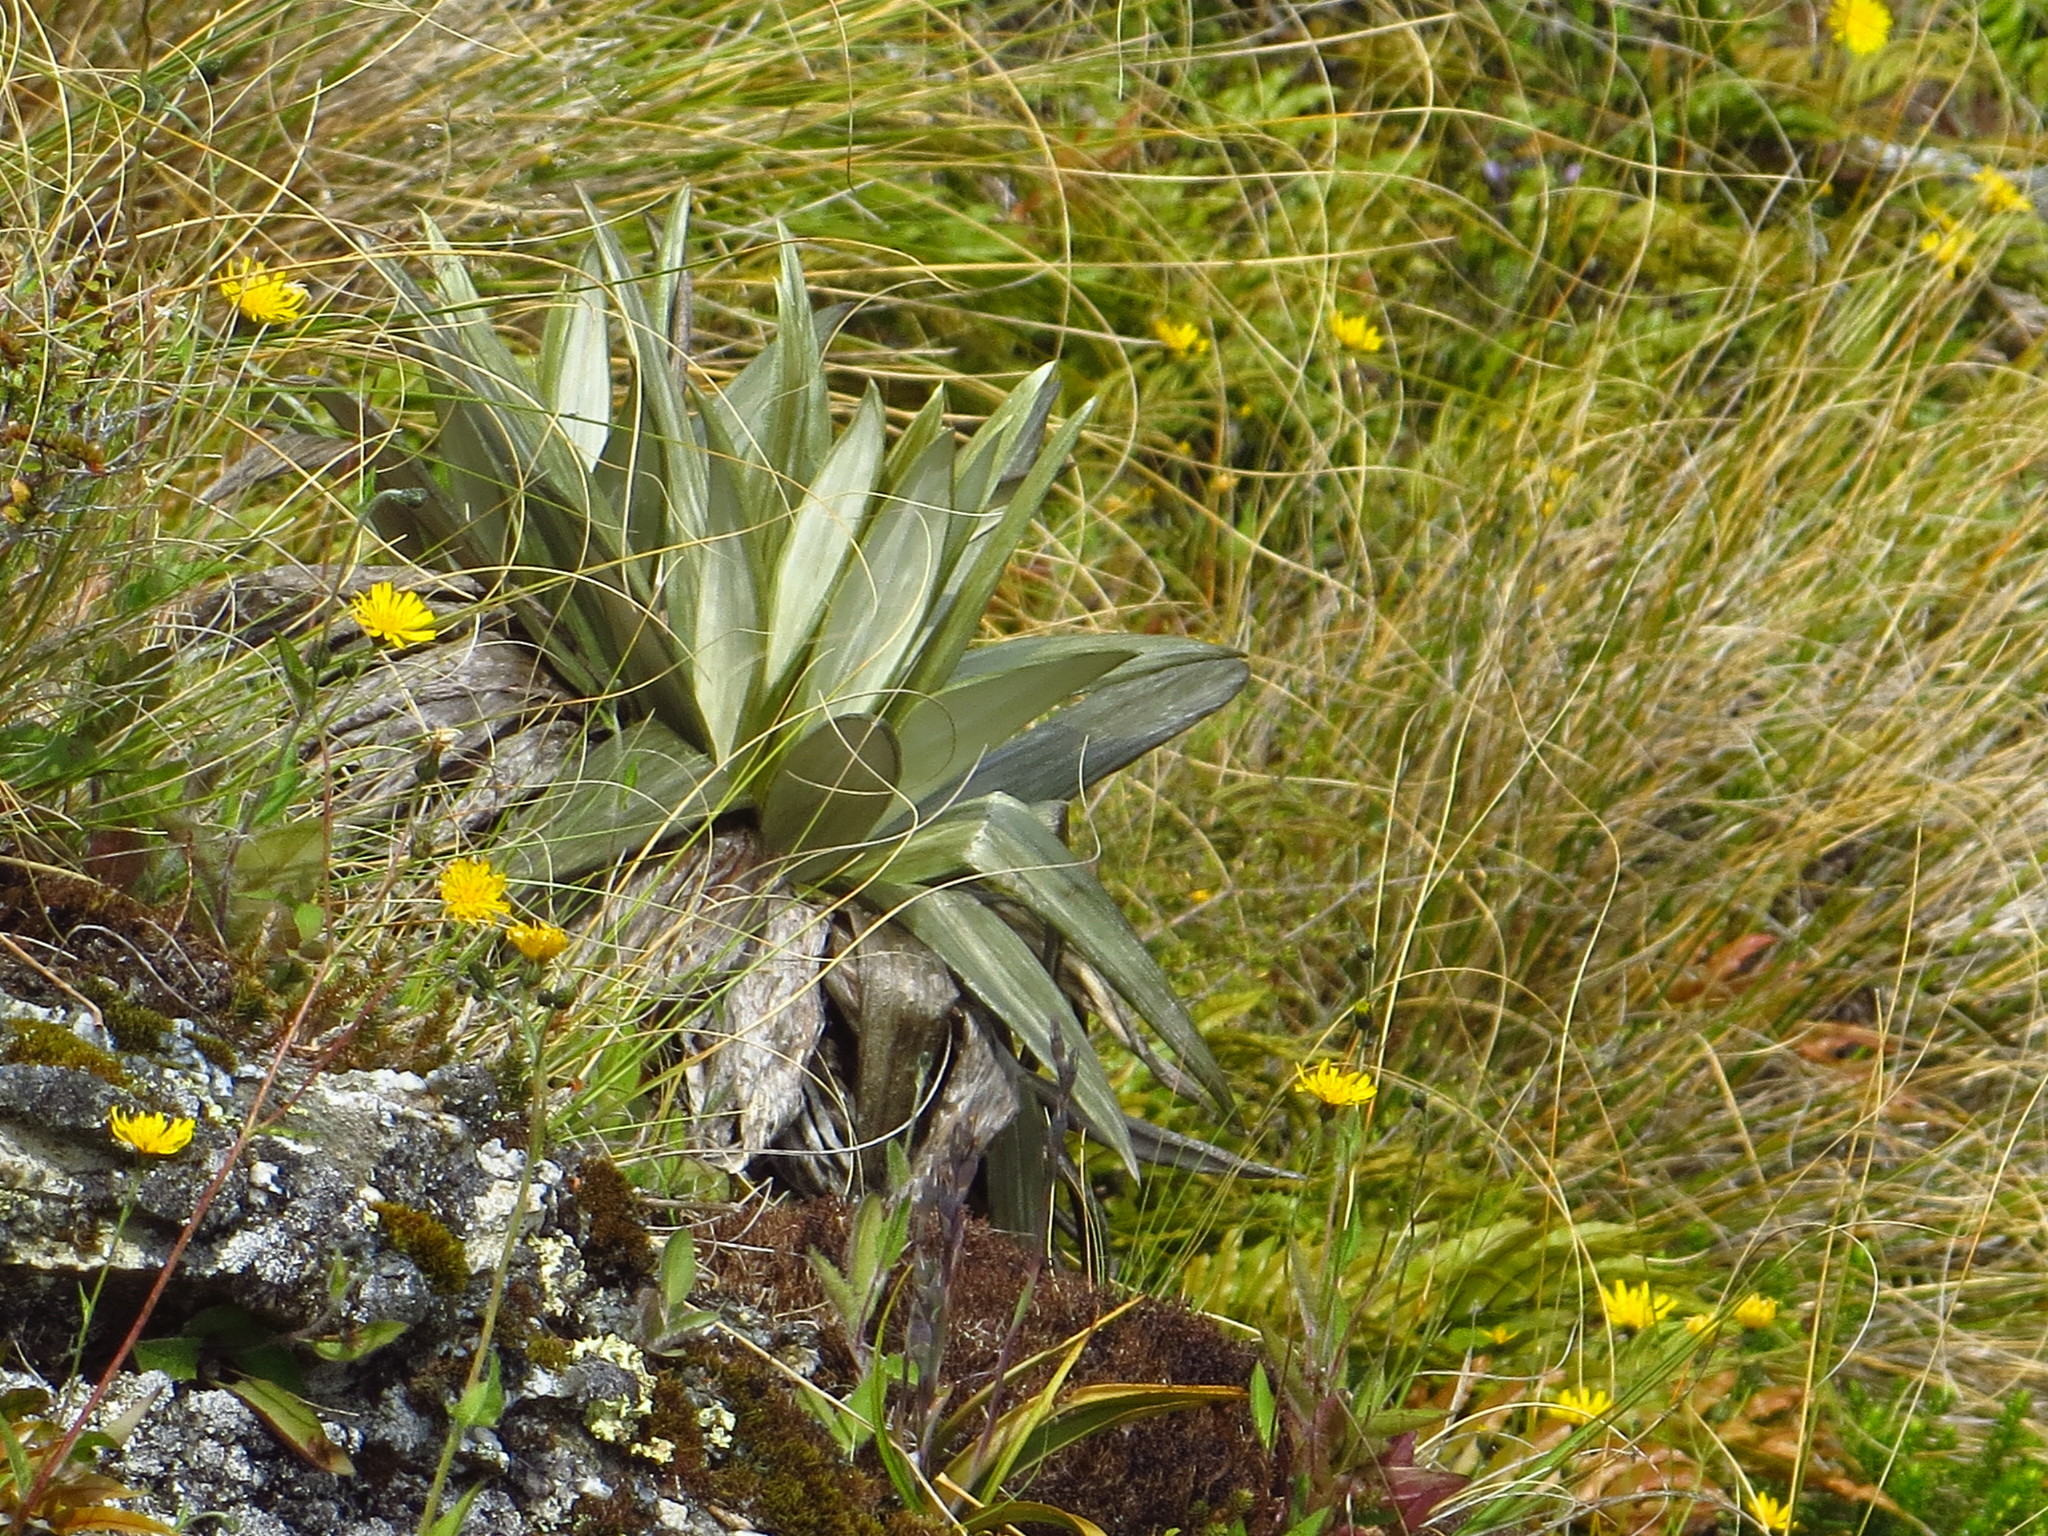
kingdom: Plantae
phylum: Tracheophyta
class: Magnoliopsida
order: Asterales
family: Asteraceae
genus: Celmisia
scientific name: Celmisia semicordata
